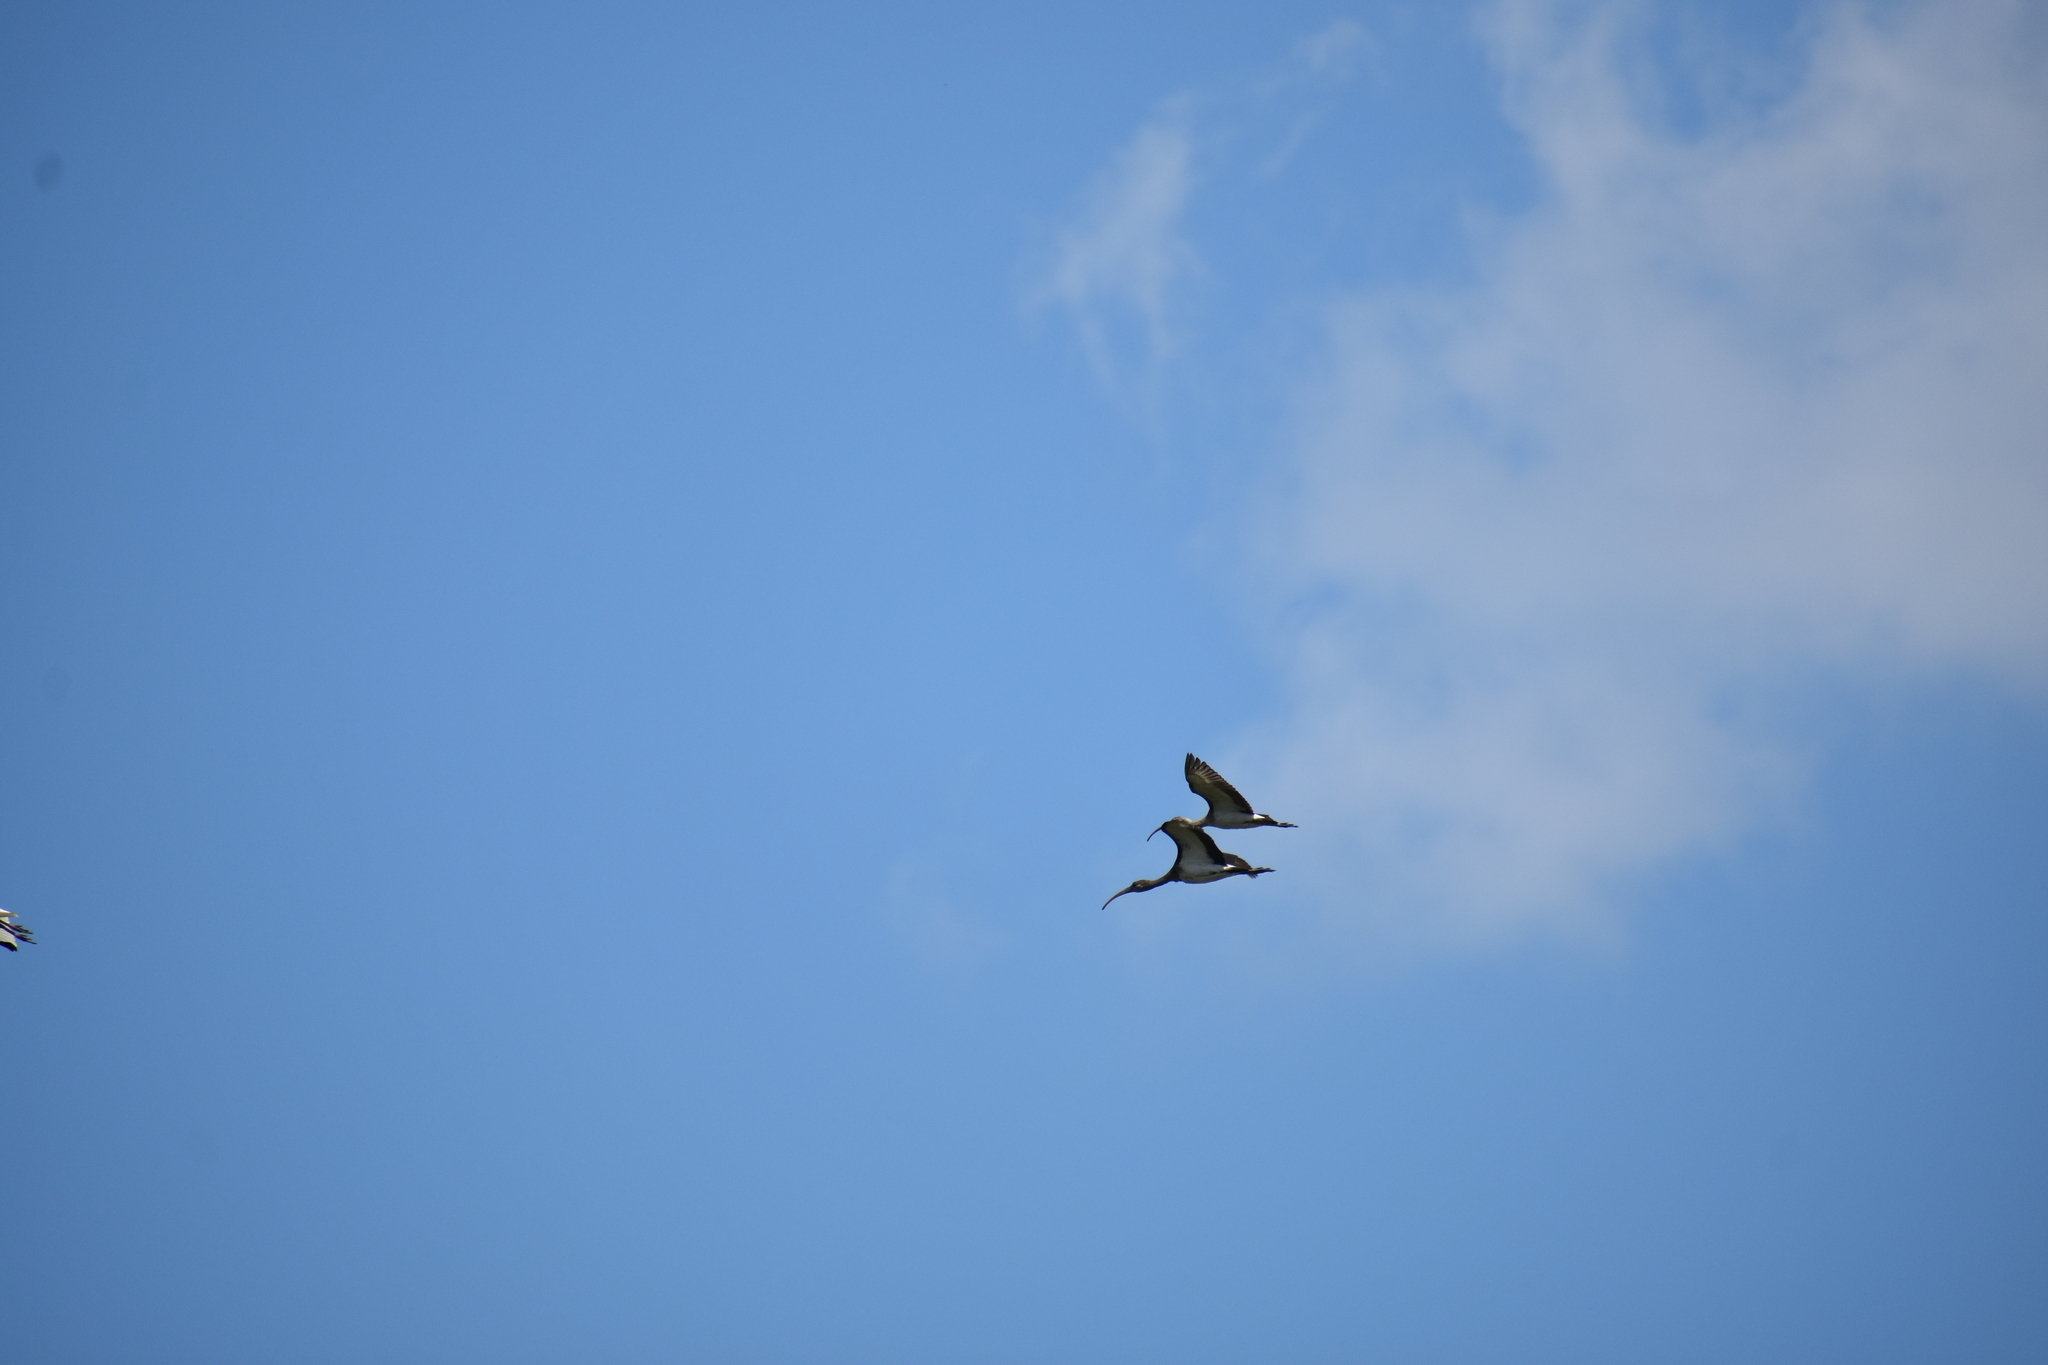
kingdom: Animalia
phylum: Chordata
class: Aves
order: Pelecaniformes
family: Threskiornithidae
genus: Eudocimus
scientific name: Eudocimus albus
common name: White ibis
